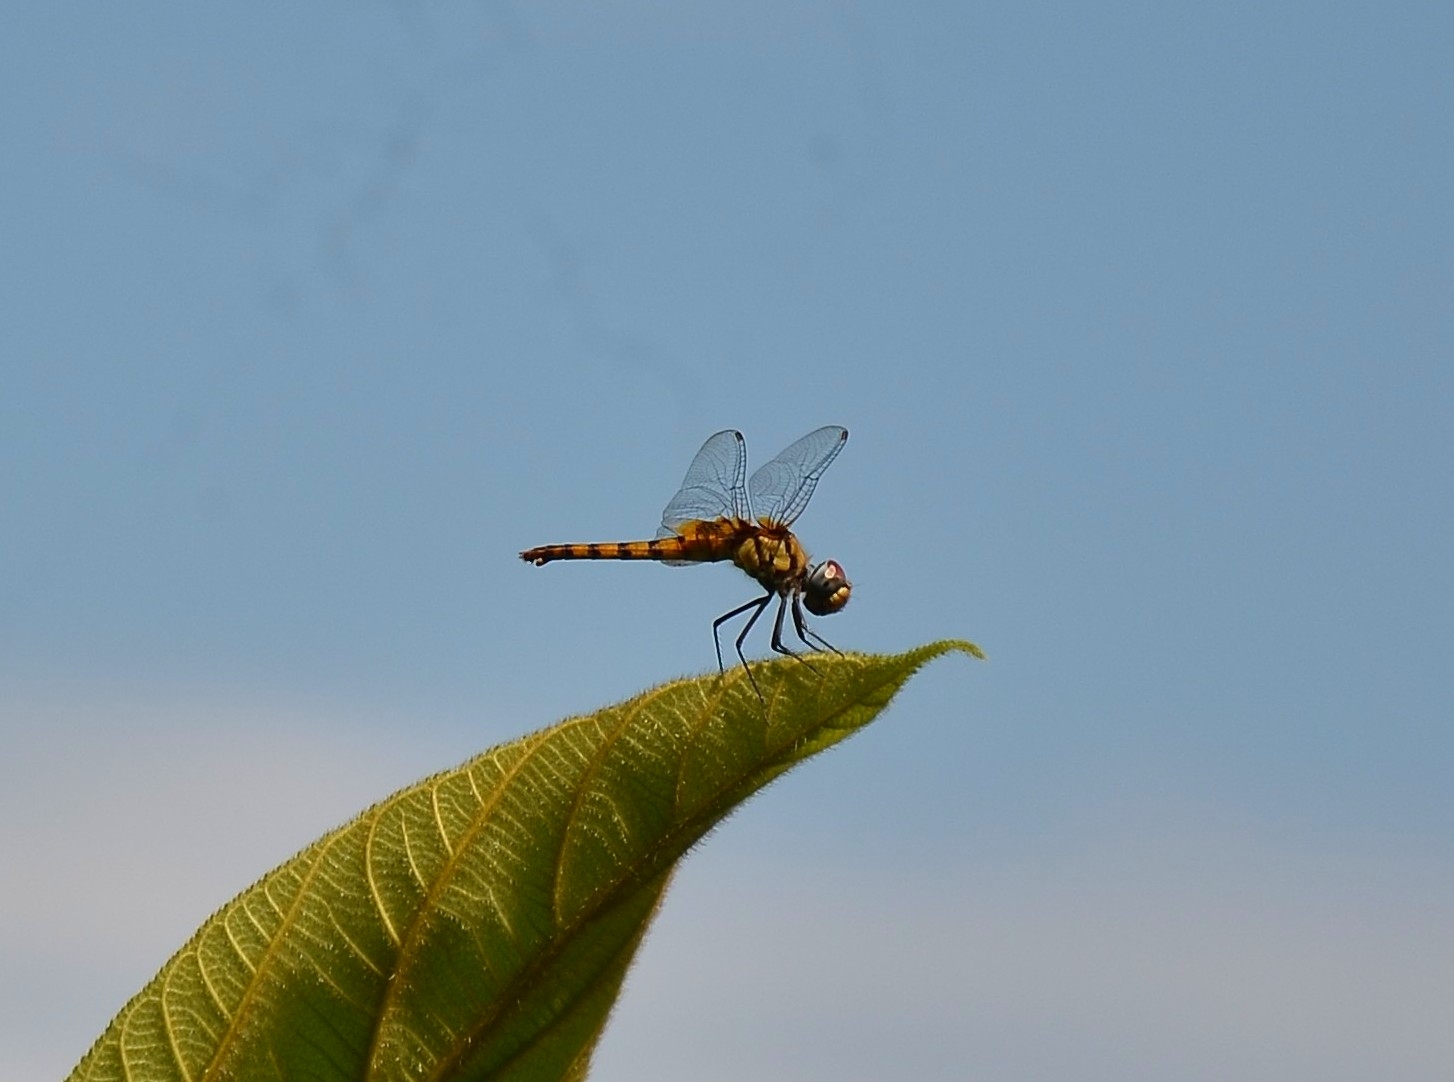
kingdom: Animalia
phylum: Arthropoda
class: Insecta
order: Odonata
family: Libellulidae
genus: Urothemis
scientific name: Urothemis signata
